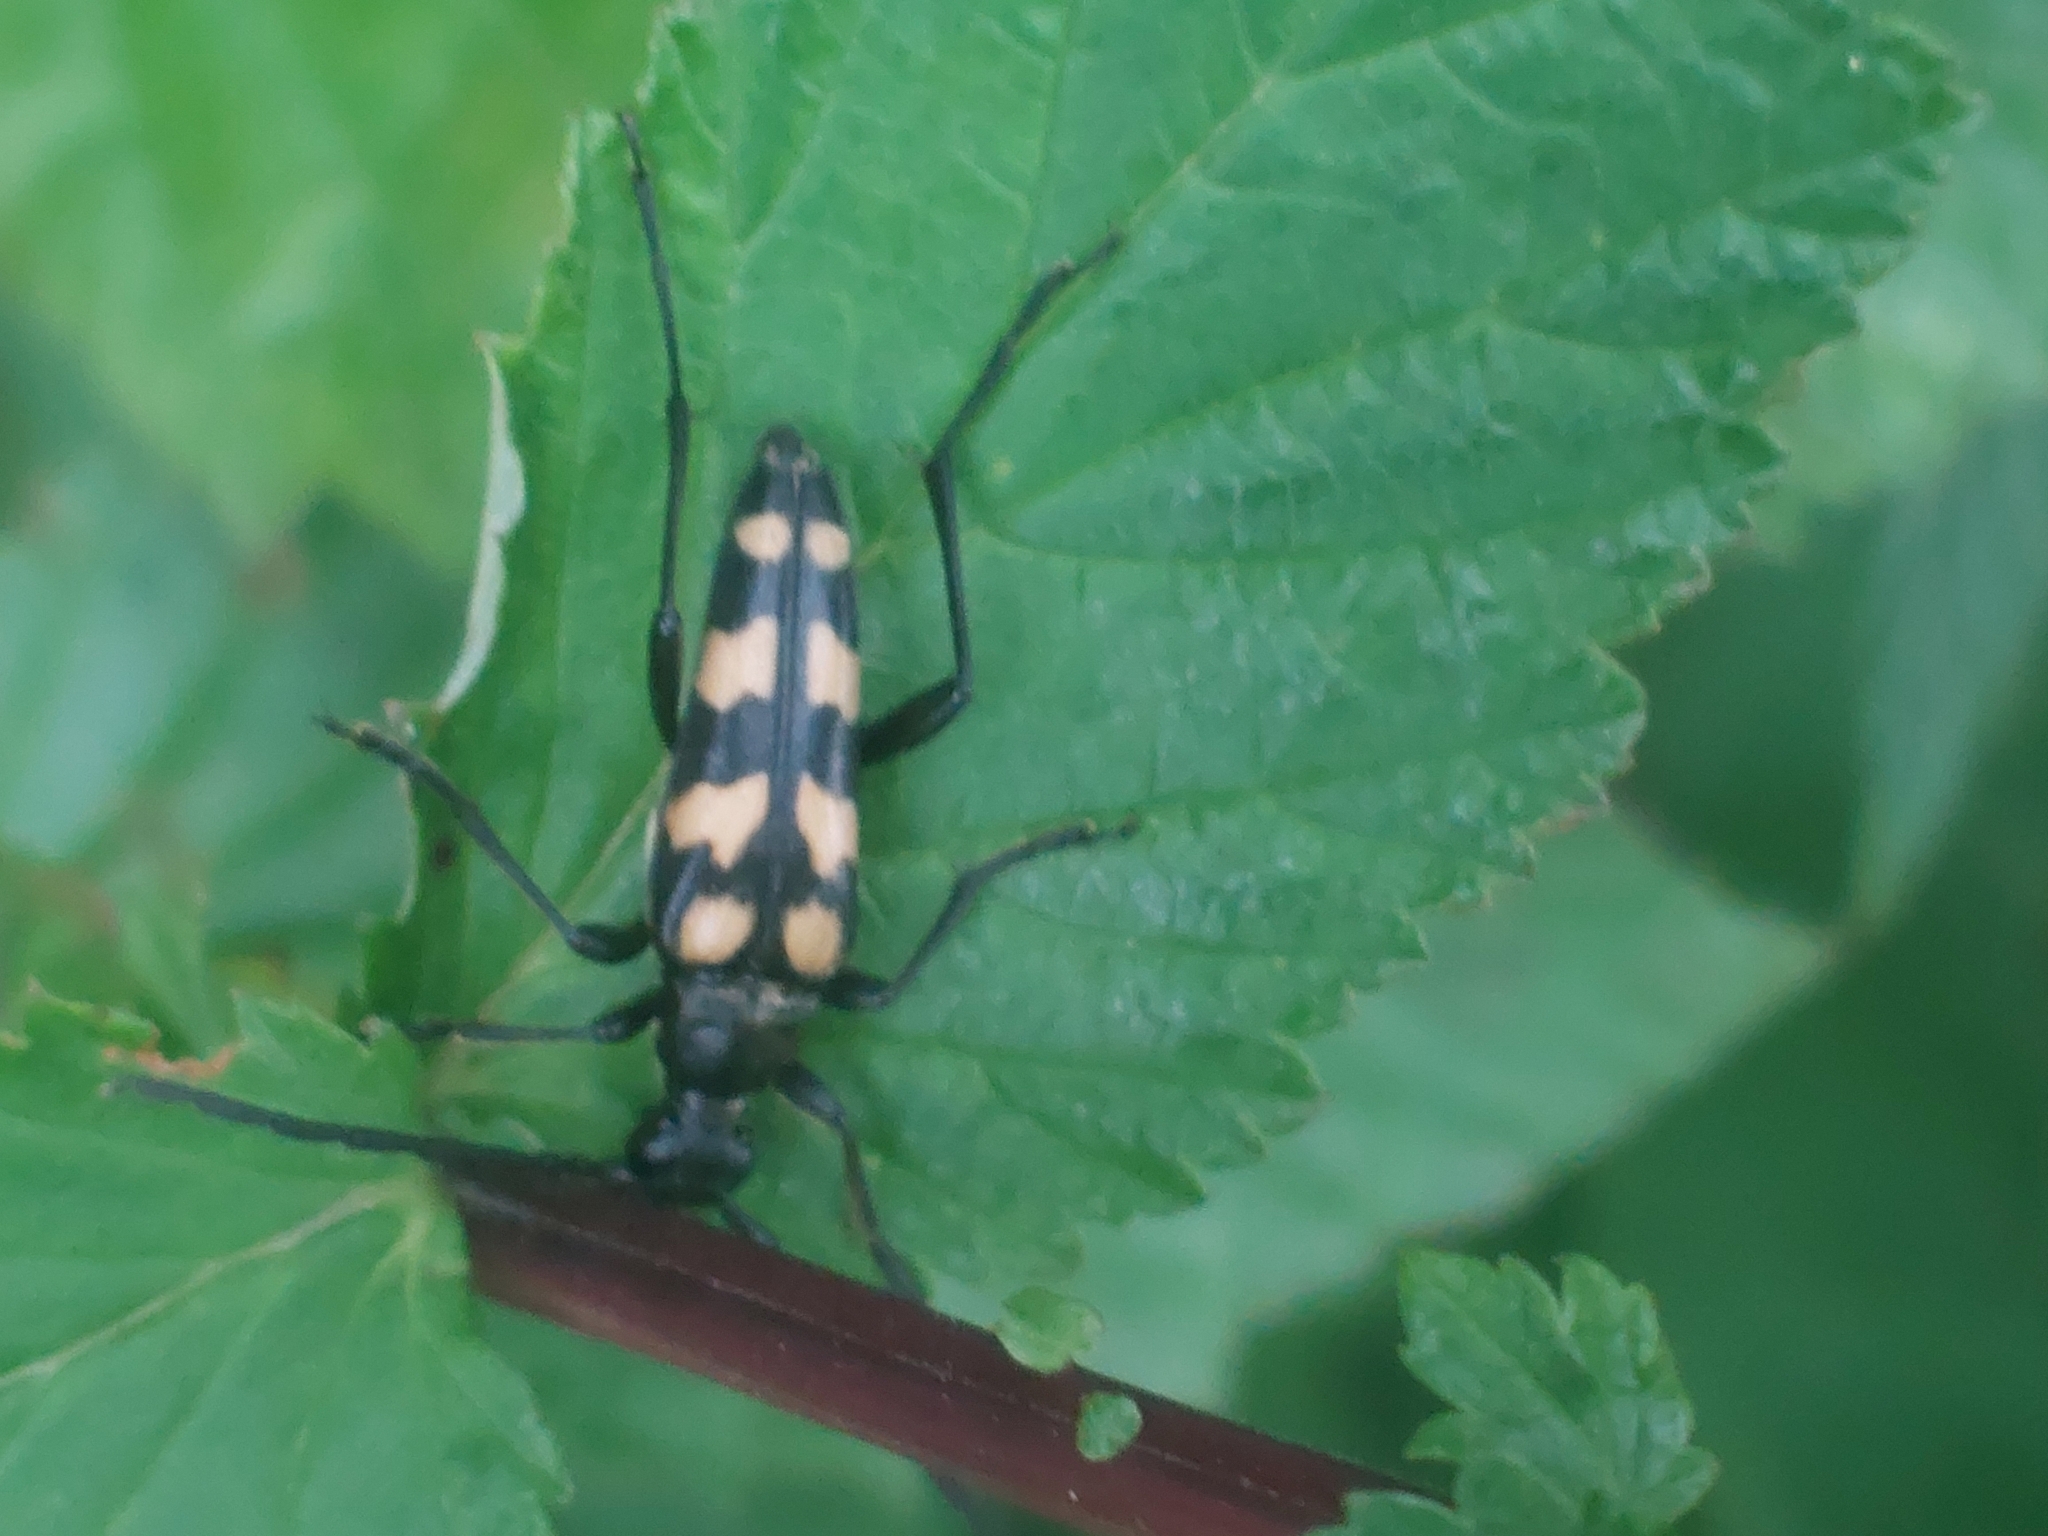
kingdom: Animalia
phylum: Arthropoda
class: Insecta
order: Coleoptera
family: Cerambycidae
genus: Leptura
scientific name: Leptura quadrifasciata
